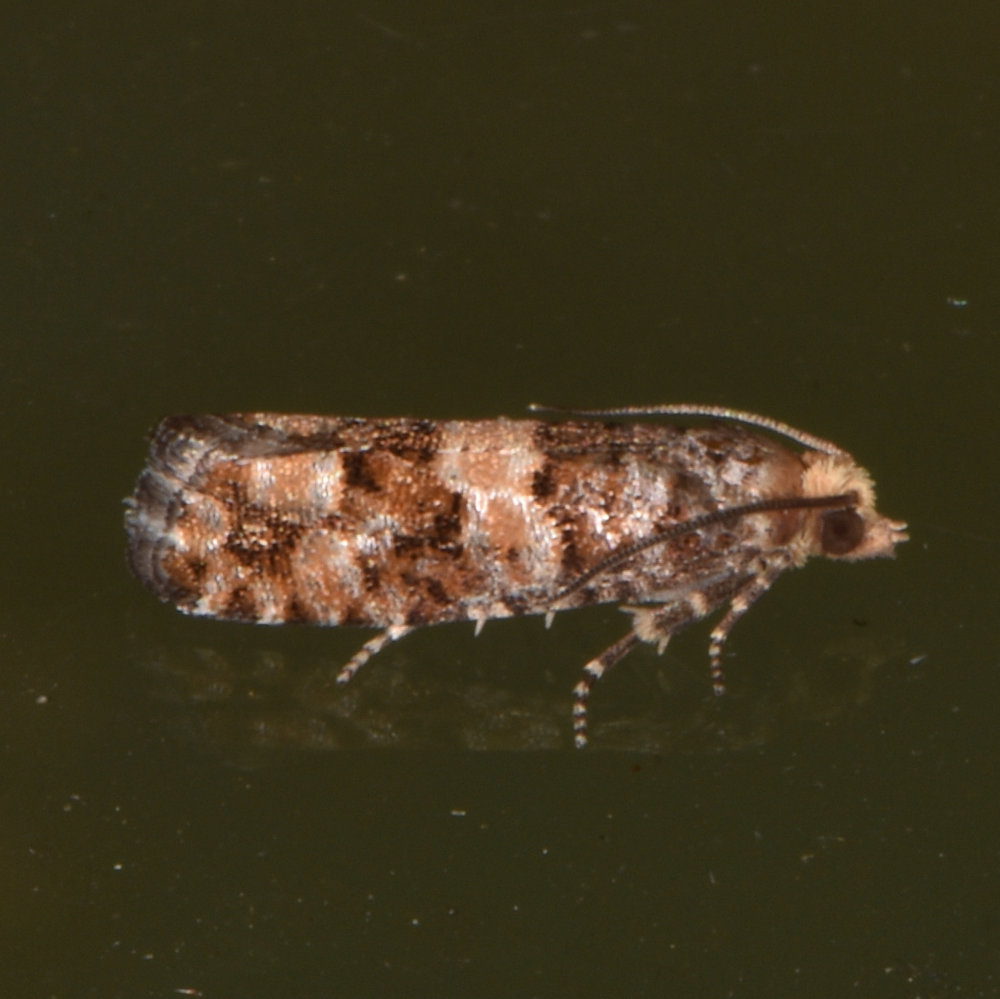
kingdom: Animalia
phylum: Arthropoda
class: Insecta
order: Lepidoptera
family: Tortricidae
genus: Eucopina
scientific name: Eucopina tocullionana
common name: White pinecone borer moth
